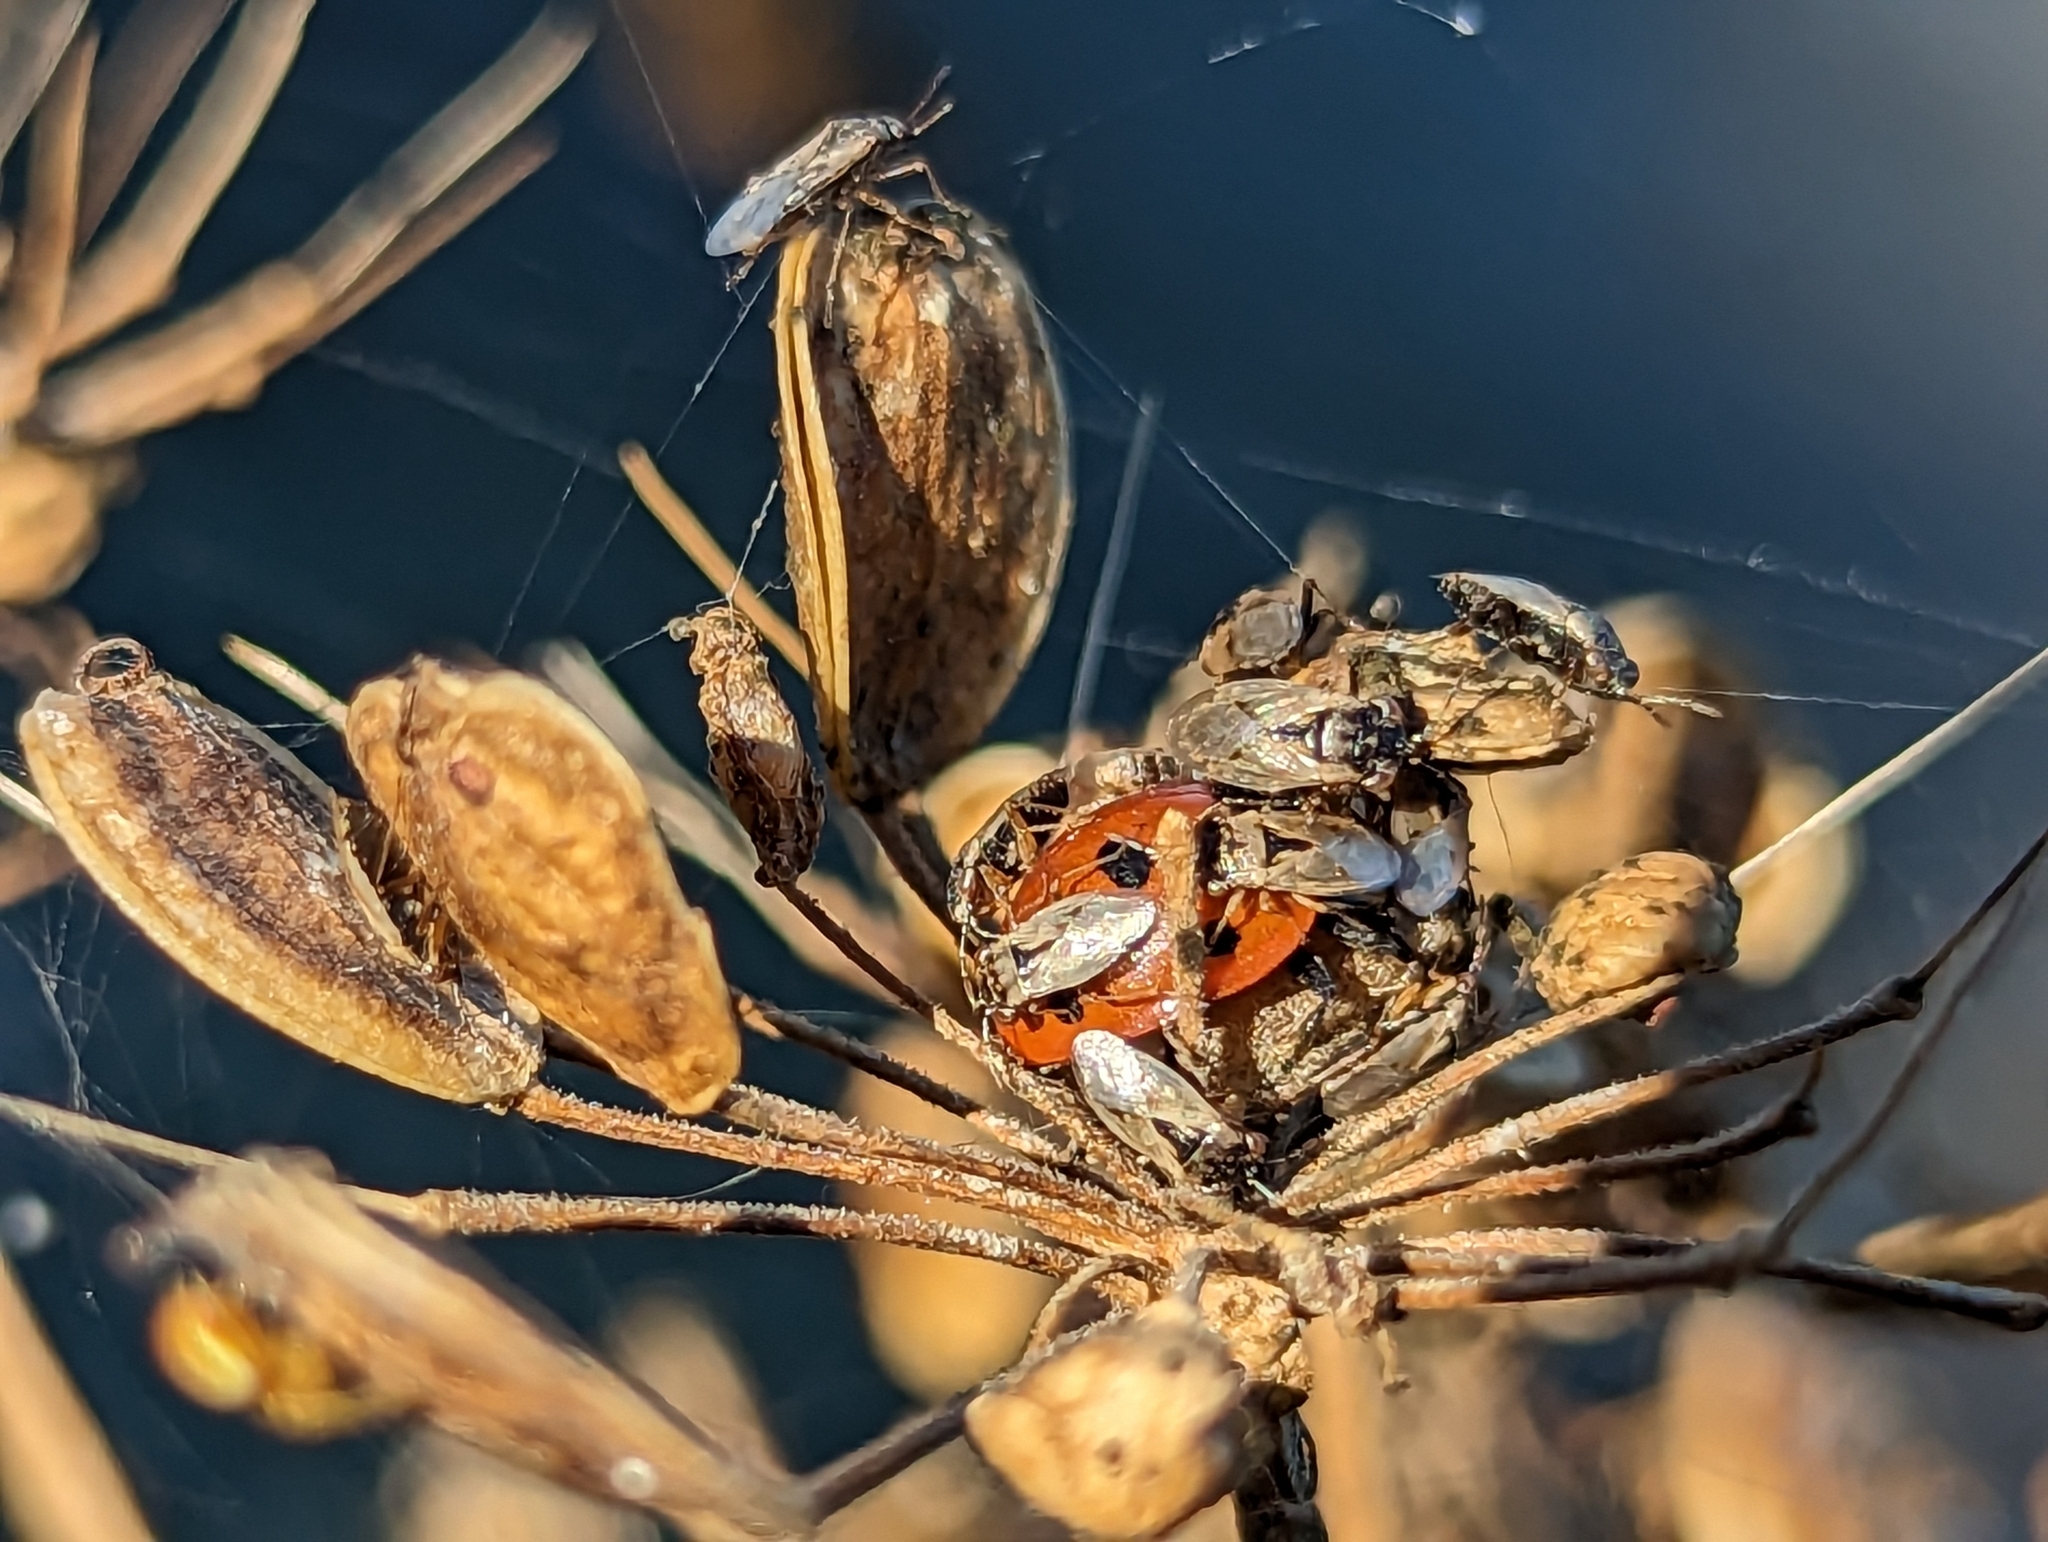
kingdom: Animalia
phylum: Arthropoda
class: Insecta
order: Coleoptera
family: Coccinellidae
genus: Coccinella
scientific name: Coccinella septempunctata
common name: Sevenspotted lady beetle
